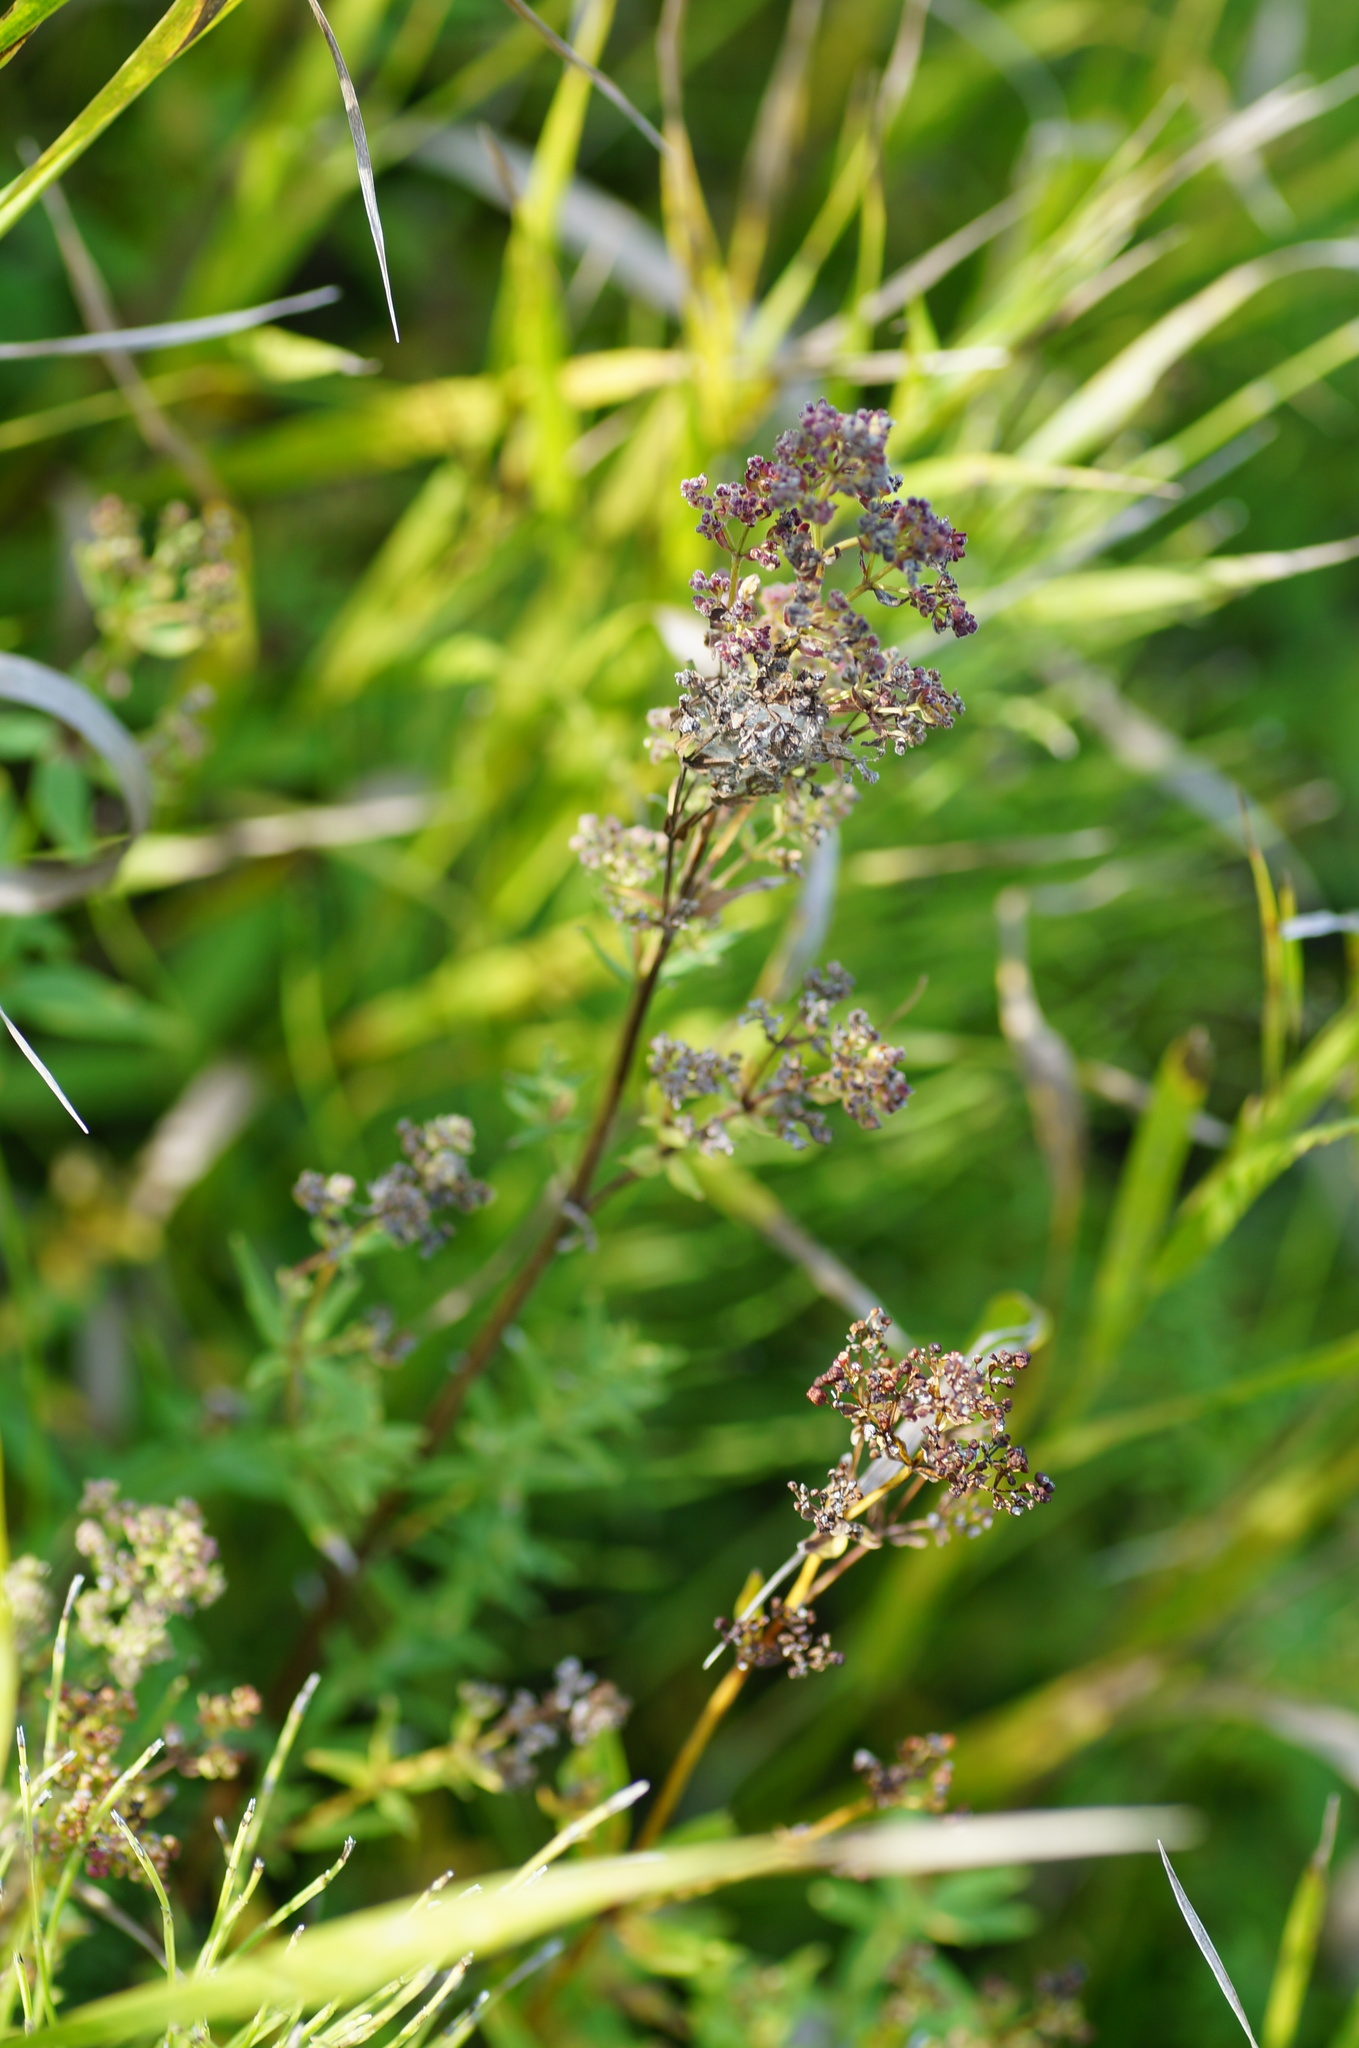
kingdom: Plantae
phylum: Tracheophyta
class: Magnoliopsida
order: Gentianales
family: Rubiaceae
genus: Galium
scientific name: Galium boreale
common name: Northern bedstraw
